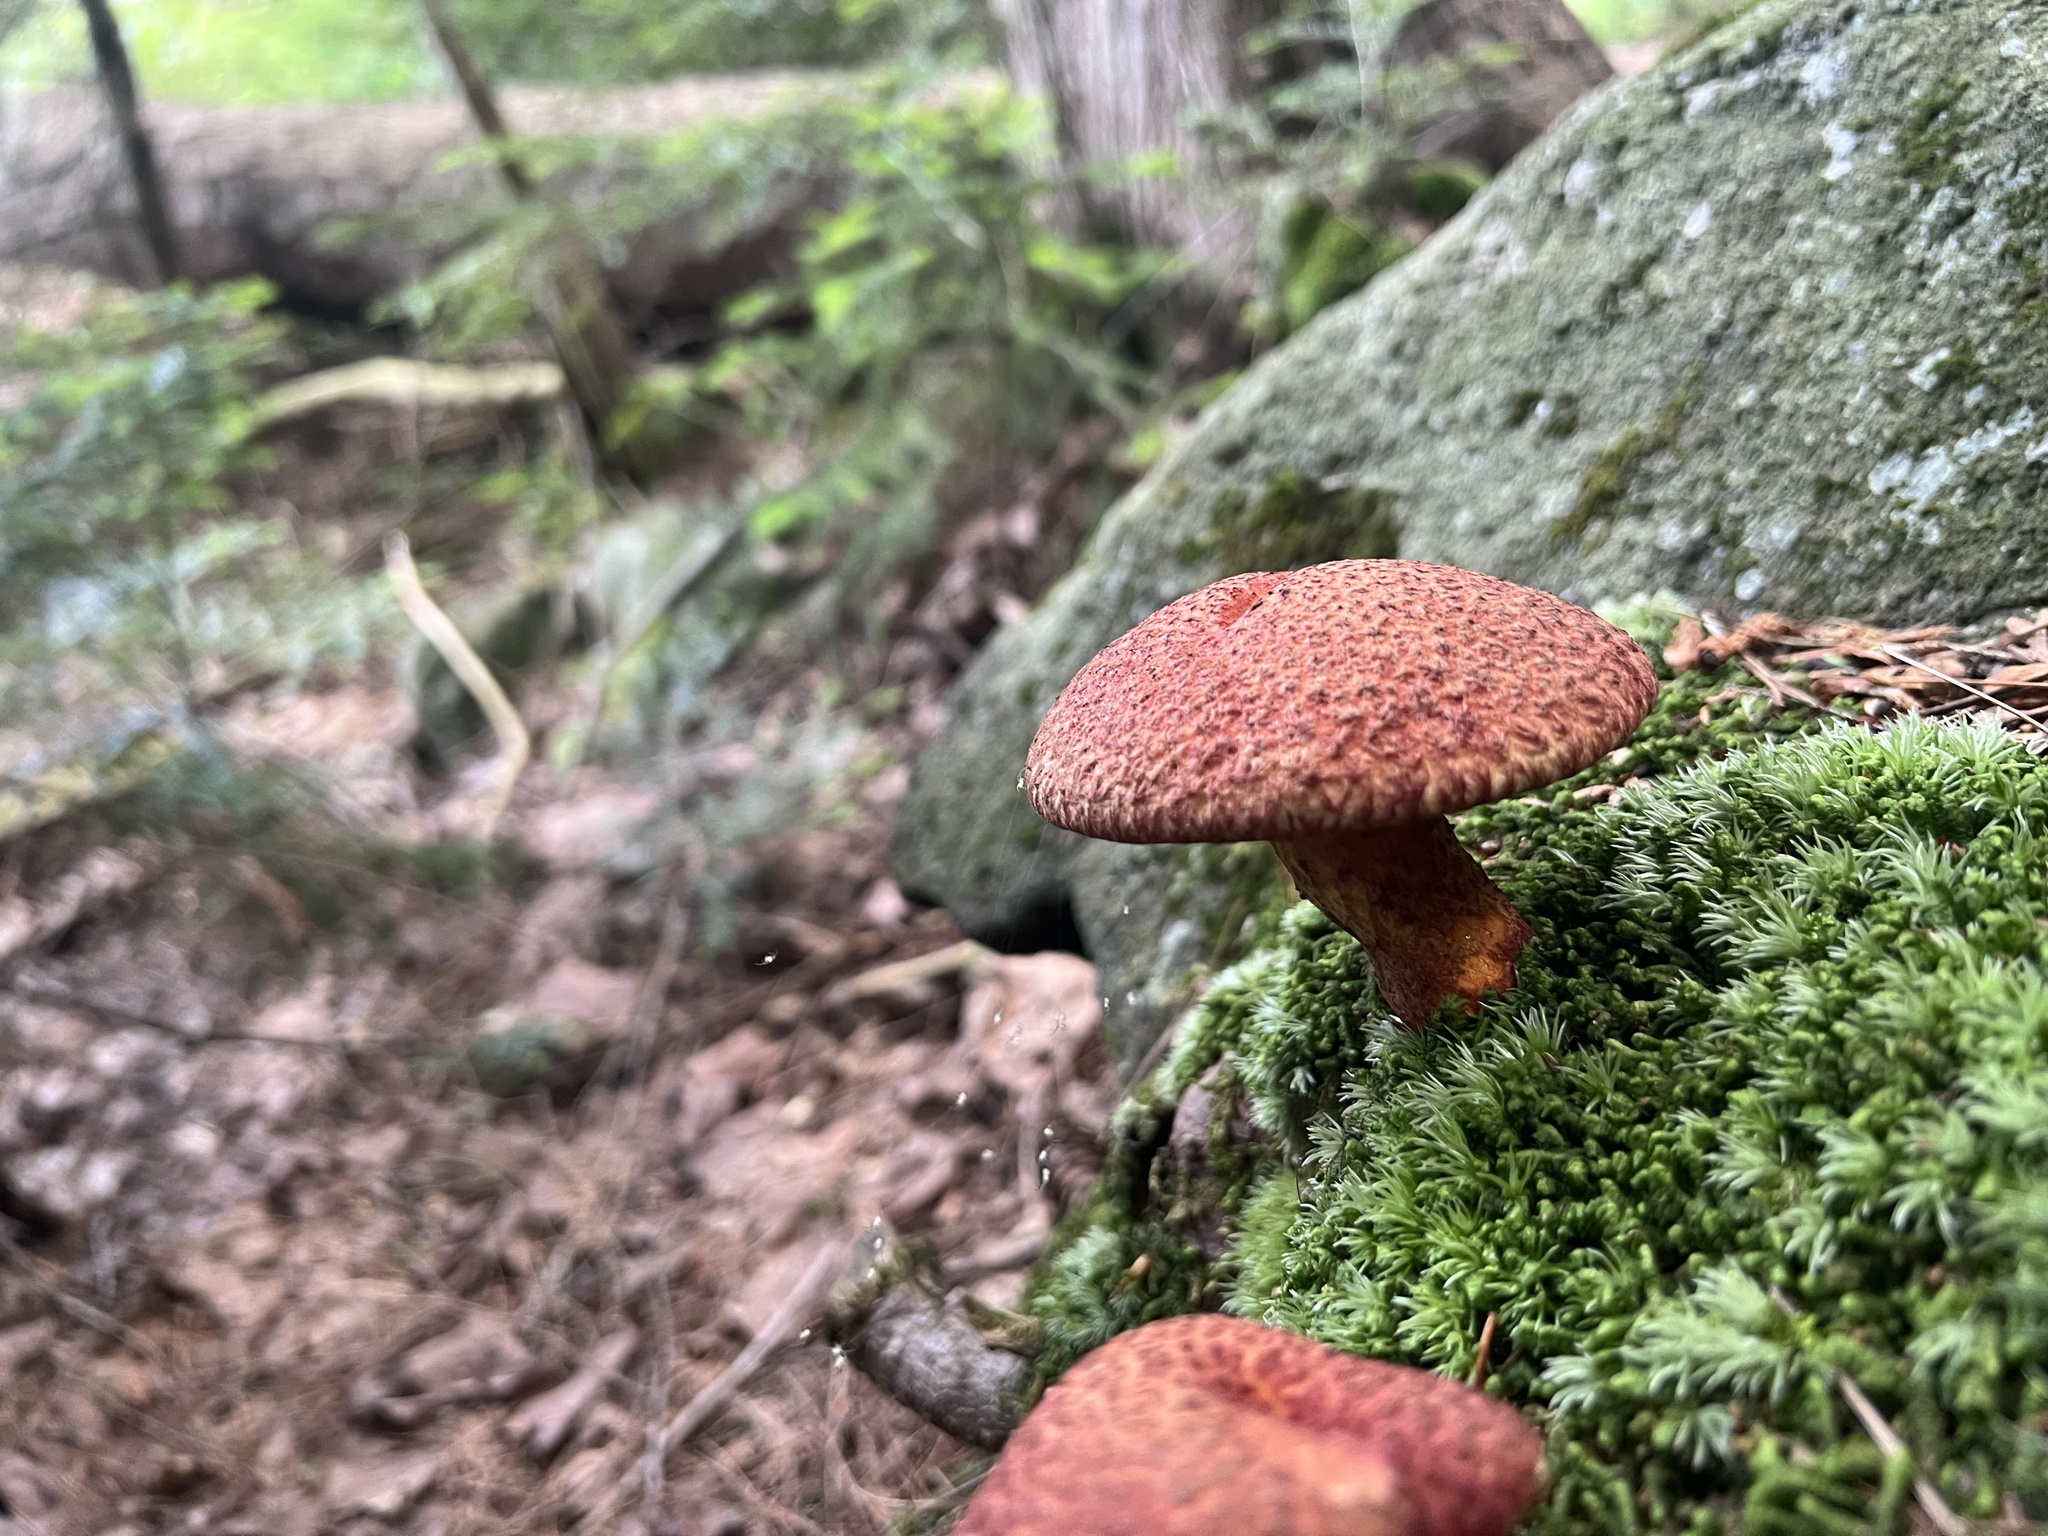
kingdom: Fungi
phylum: Basidiomycota
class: Agaricomycetes
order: Boletales
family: Suillaceae
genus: Suillus
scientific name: Suillus spraguei
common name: Painted suillus
